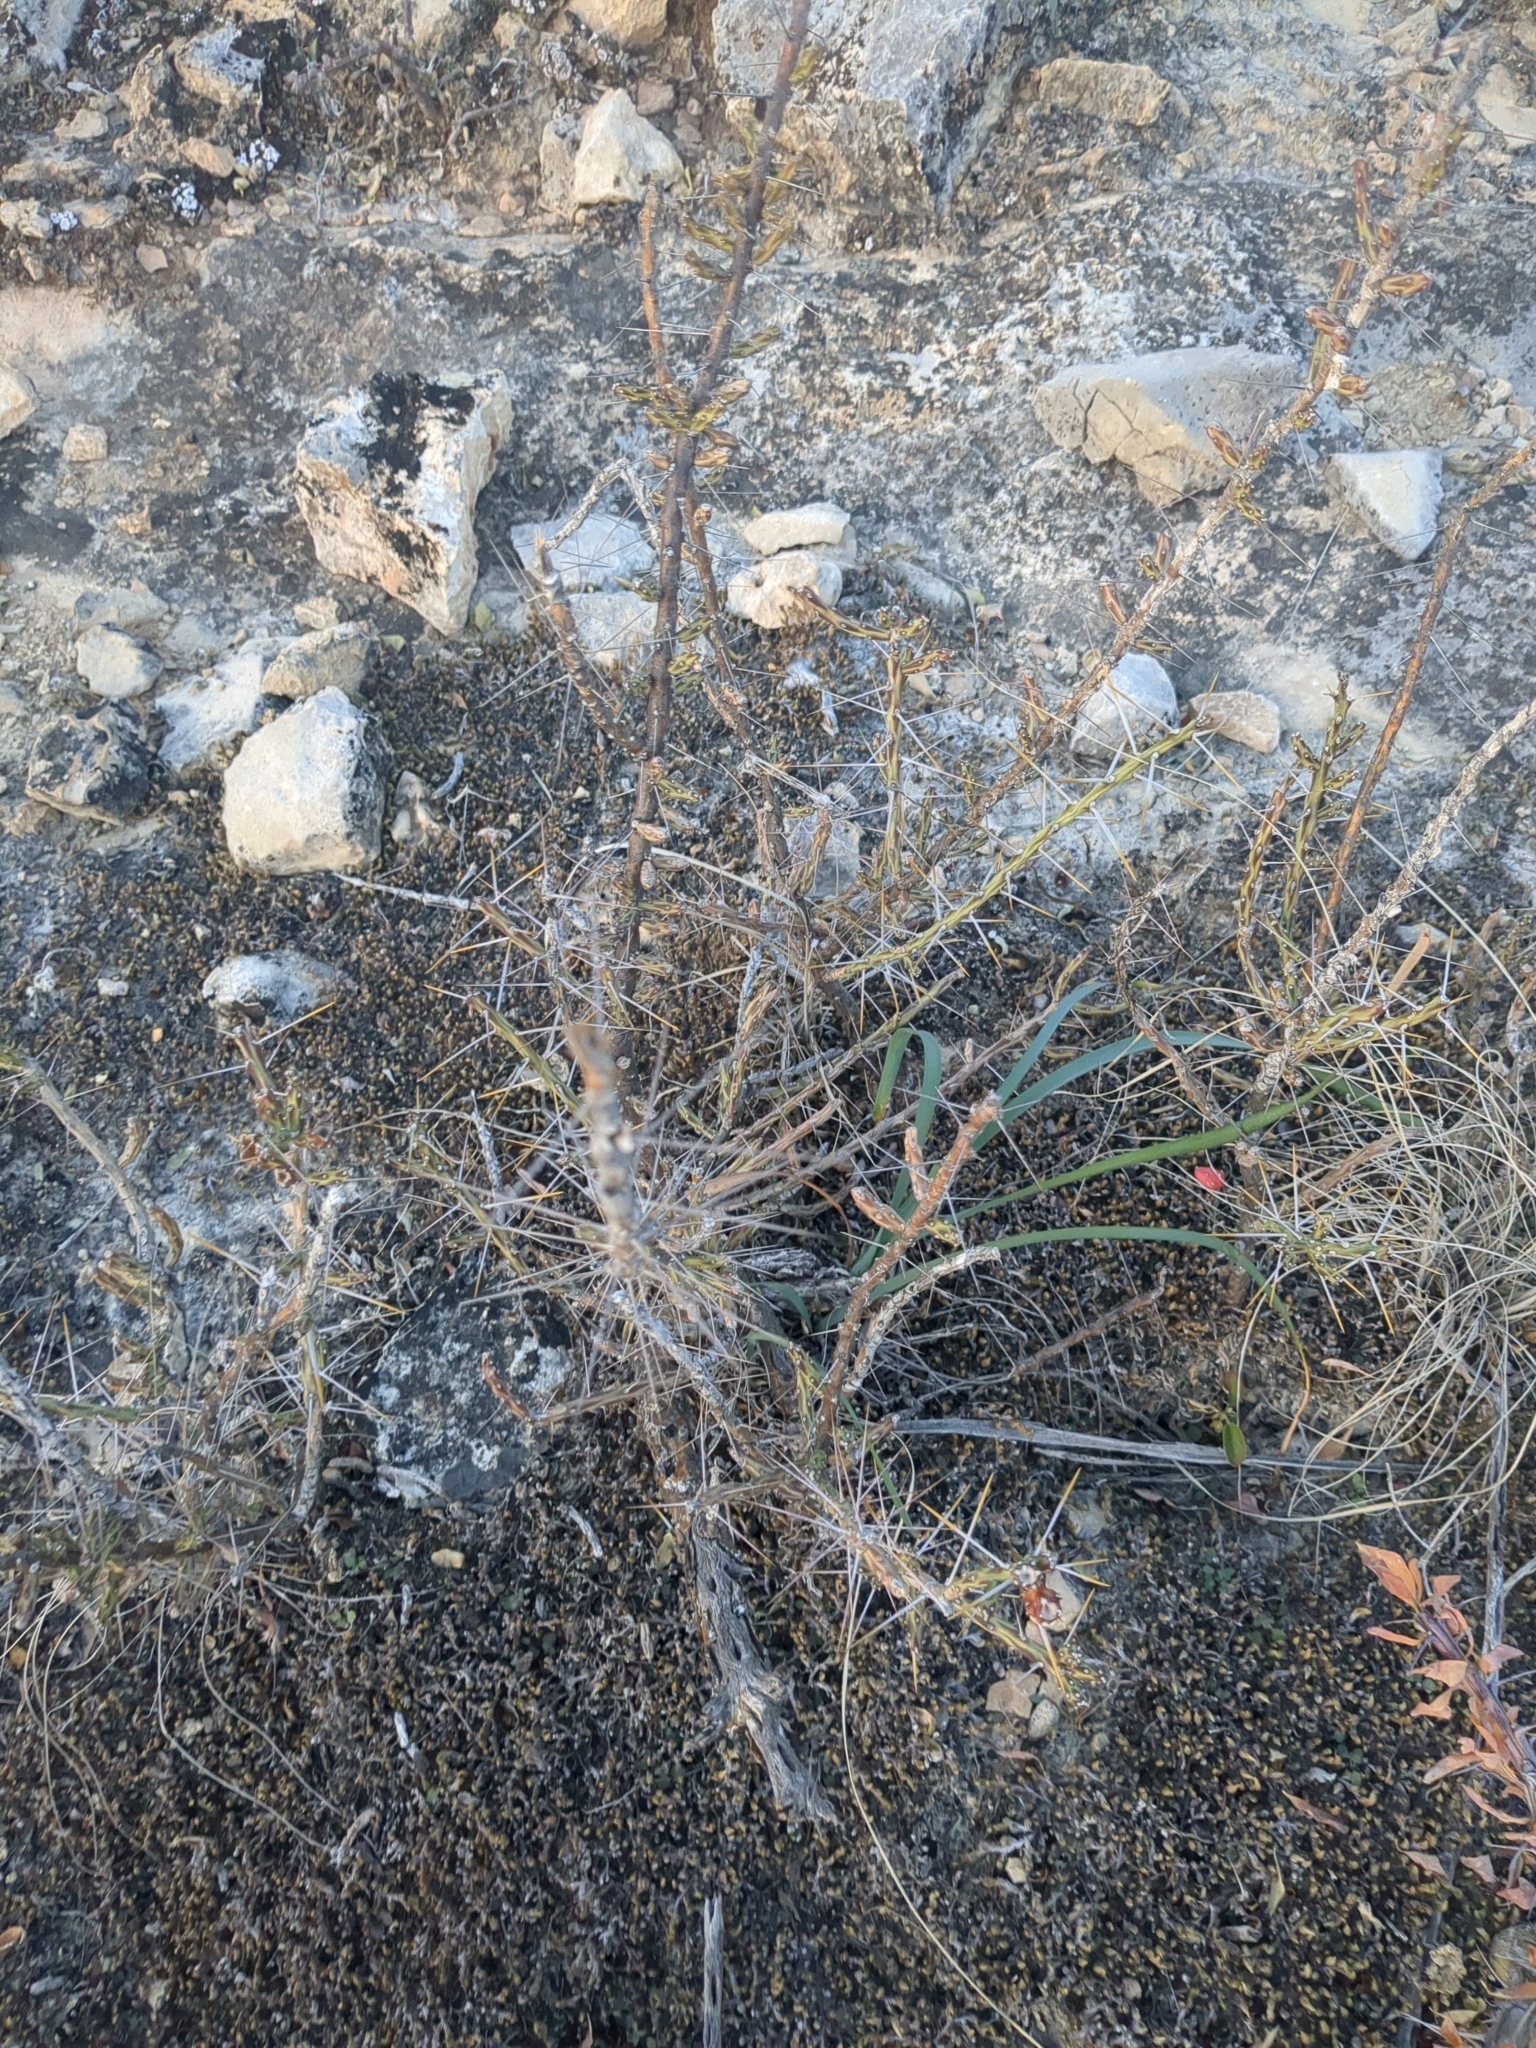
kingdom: Plantae
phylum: Tracheophyta
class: Magnoliopsida
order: Caryophyllales
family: Cactaceae
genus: Cylindropuntia
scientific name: Cylindropuntia leptocaulis
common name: Christmas cactus
